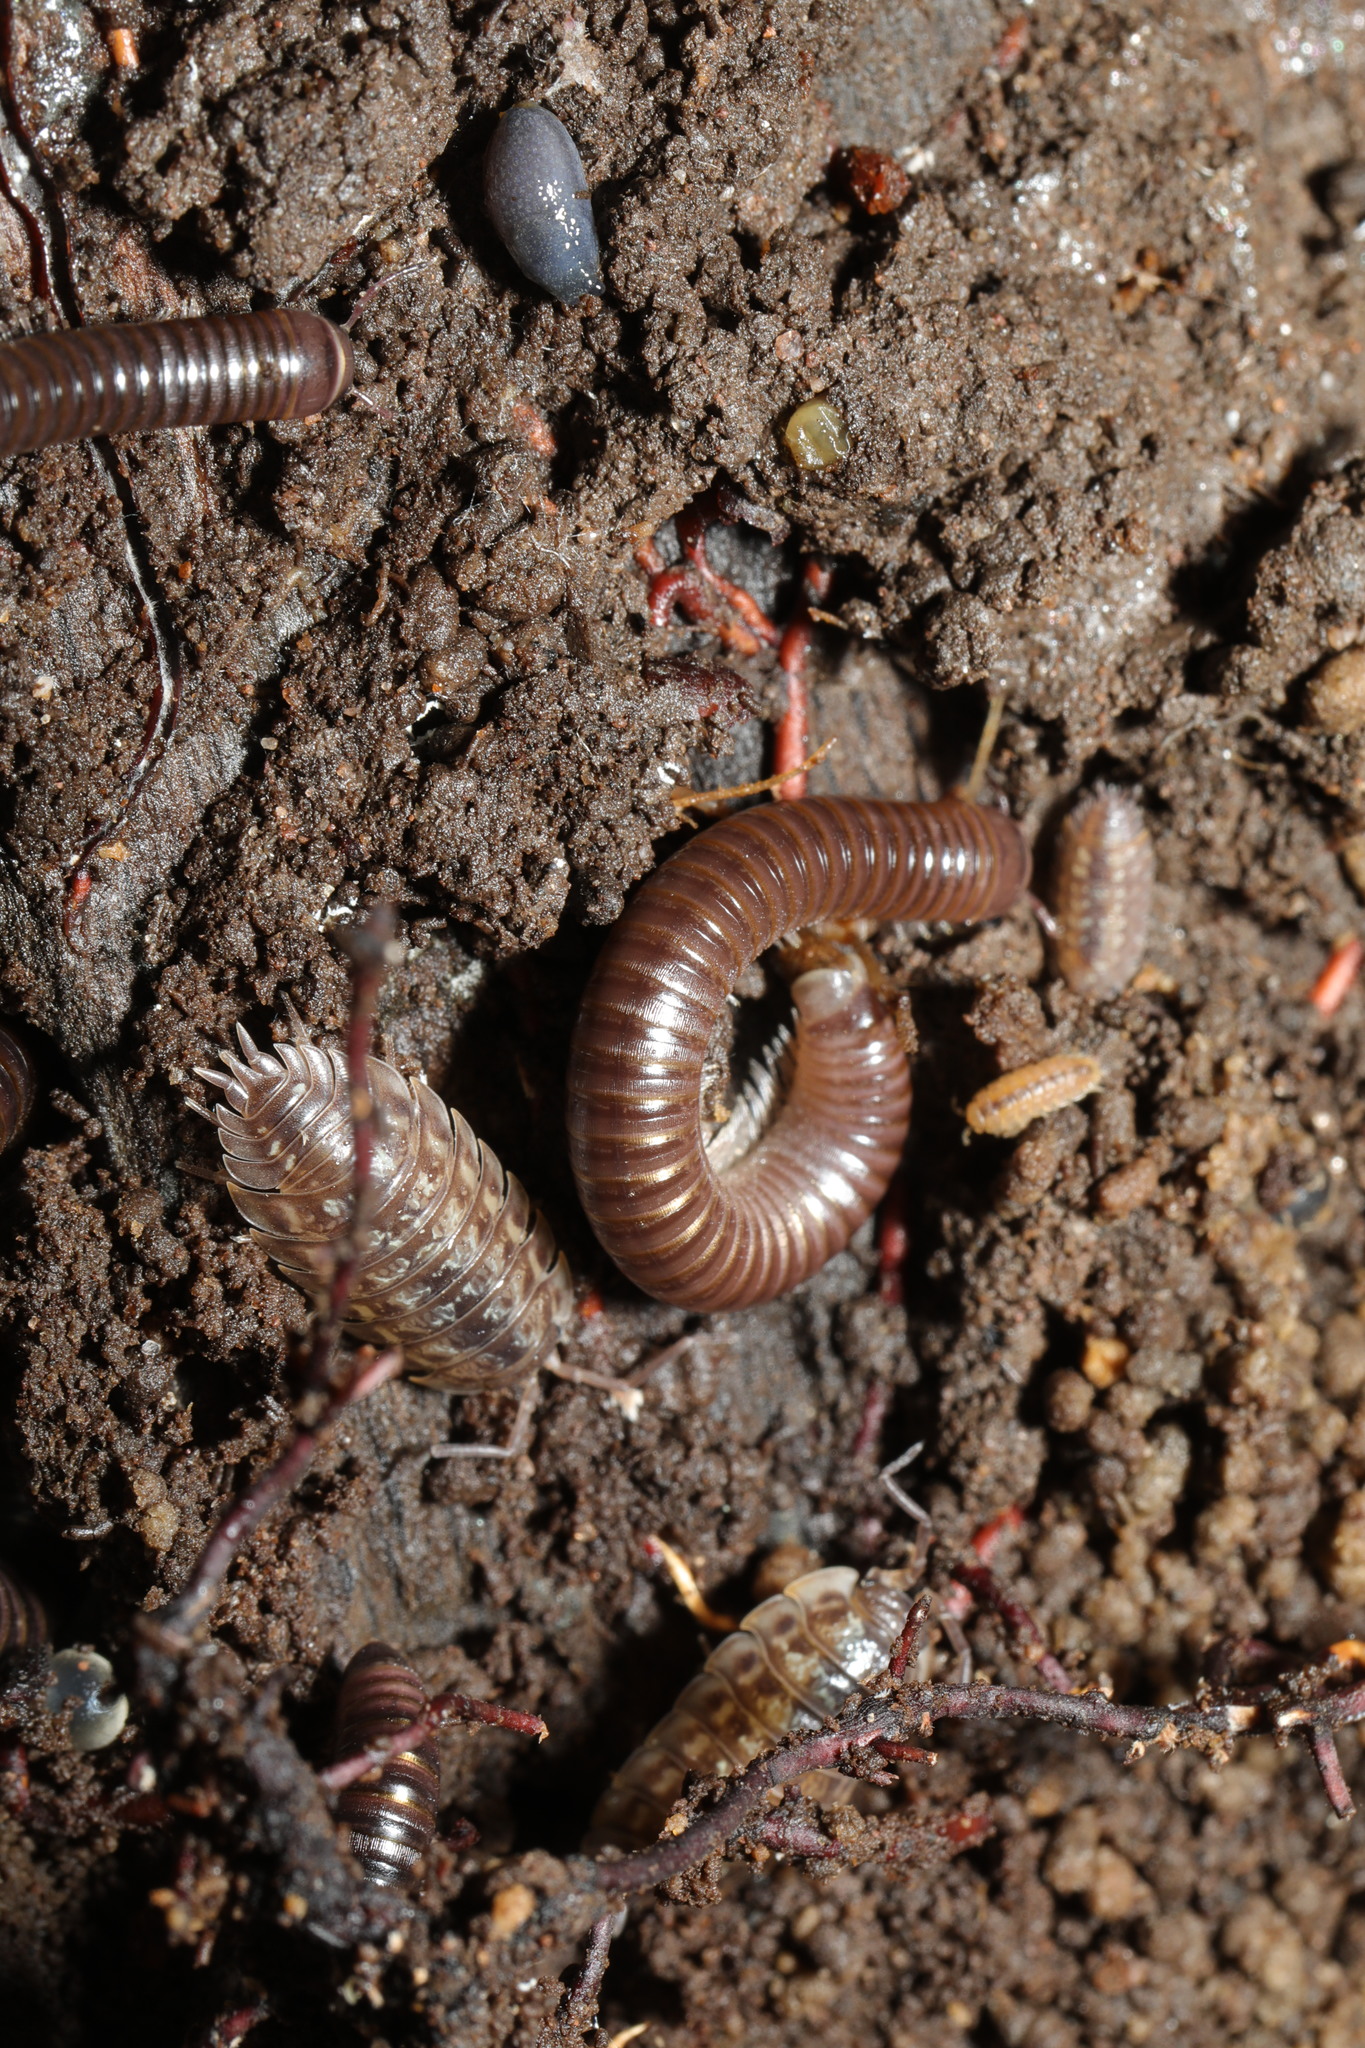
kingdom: Animalia
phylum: Arthropoda
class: Malacostraca
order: Isopoda
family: Trichoniscidae
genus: Haplophthalmus
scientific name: Haplophthalmus danicus
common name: Pillbug
